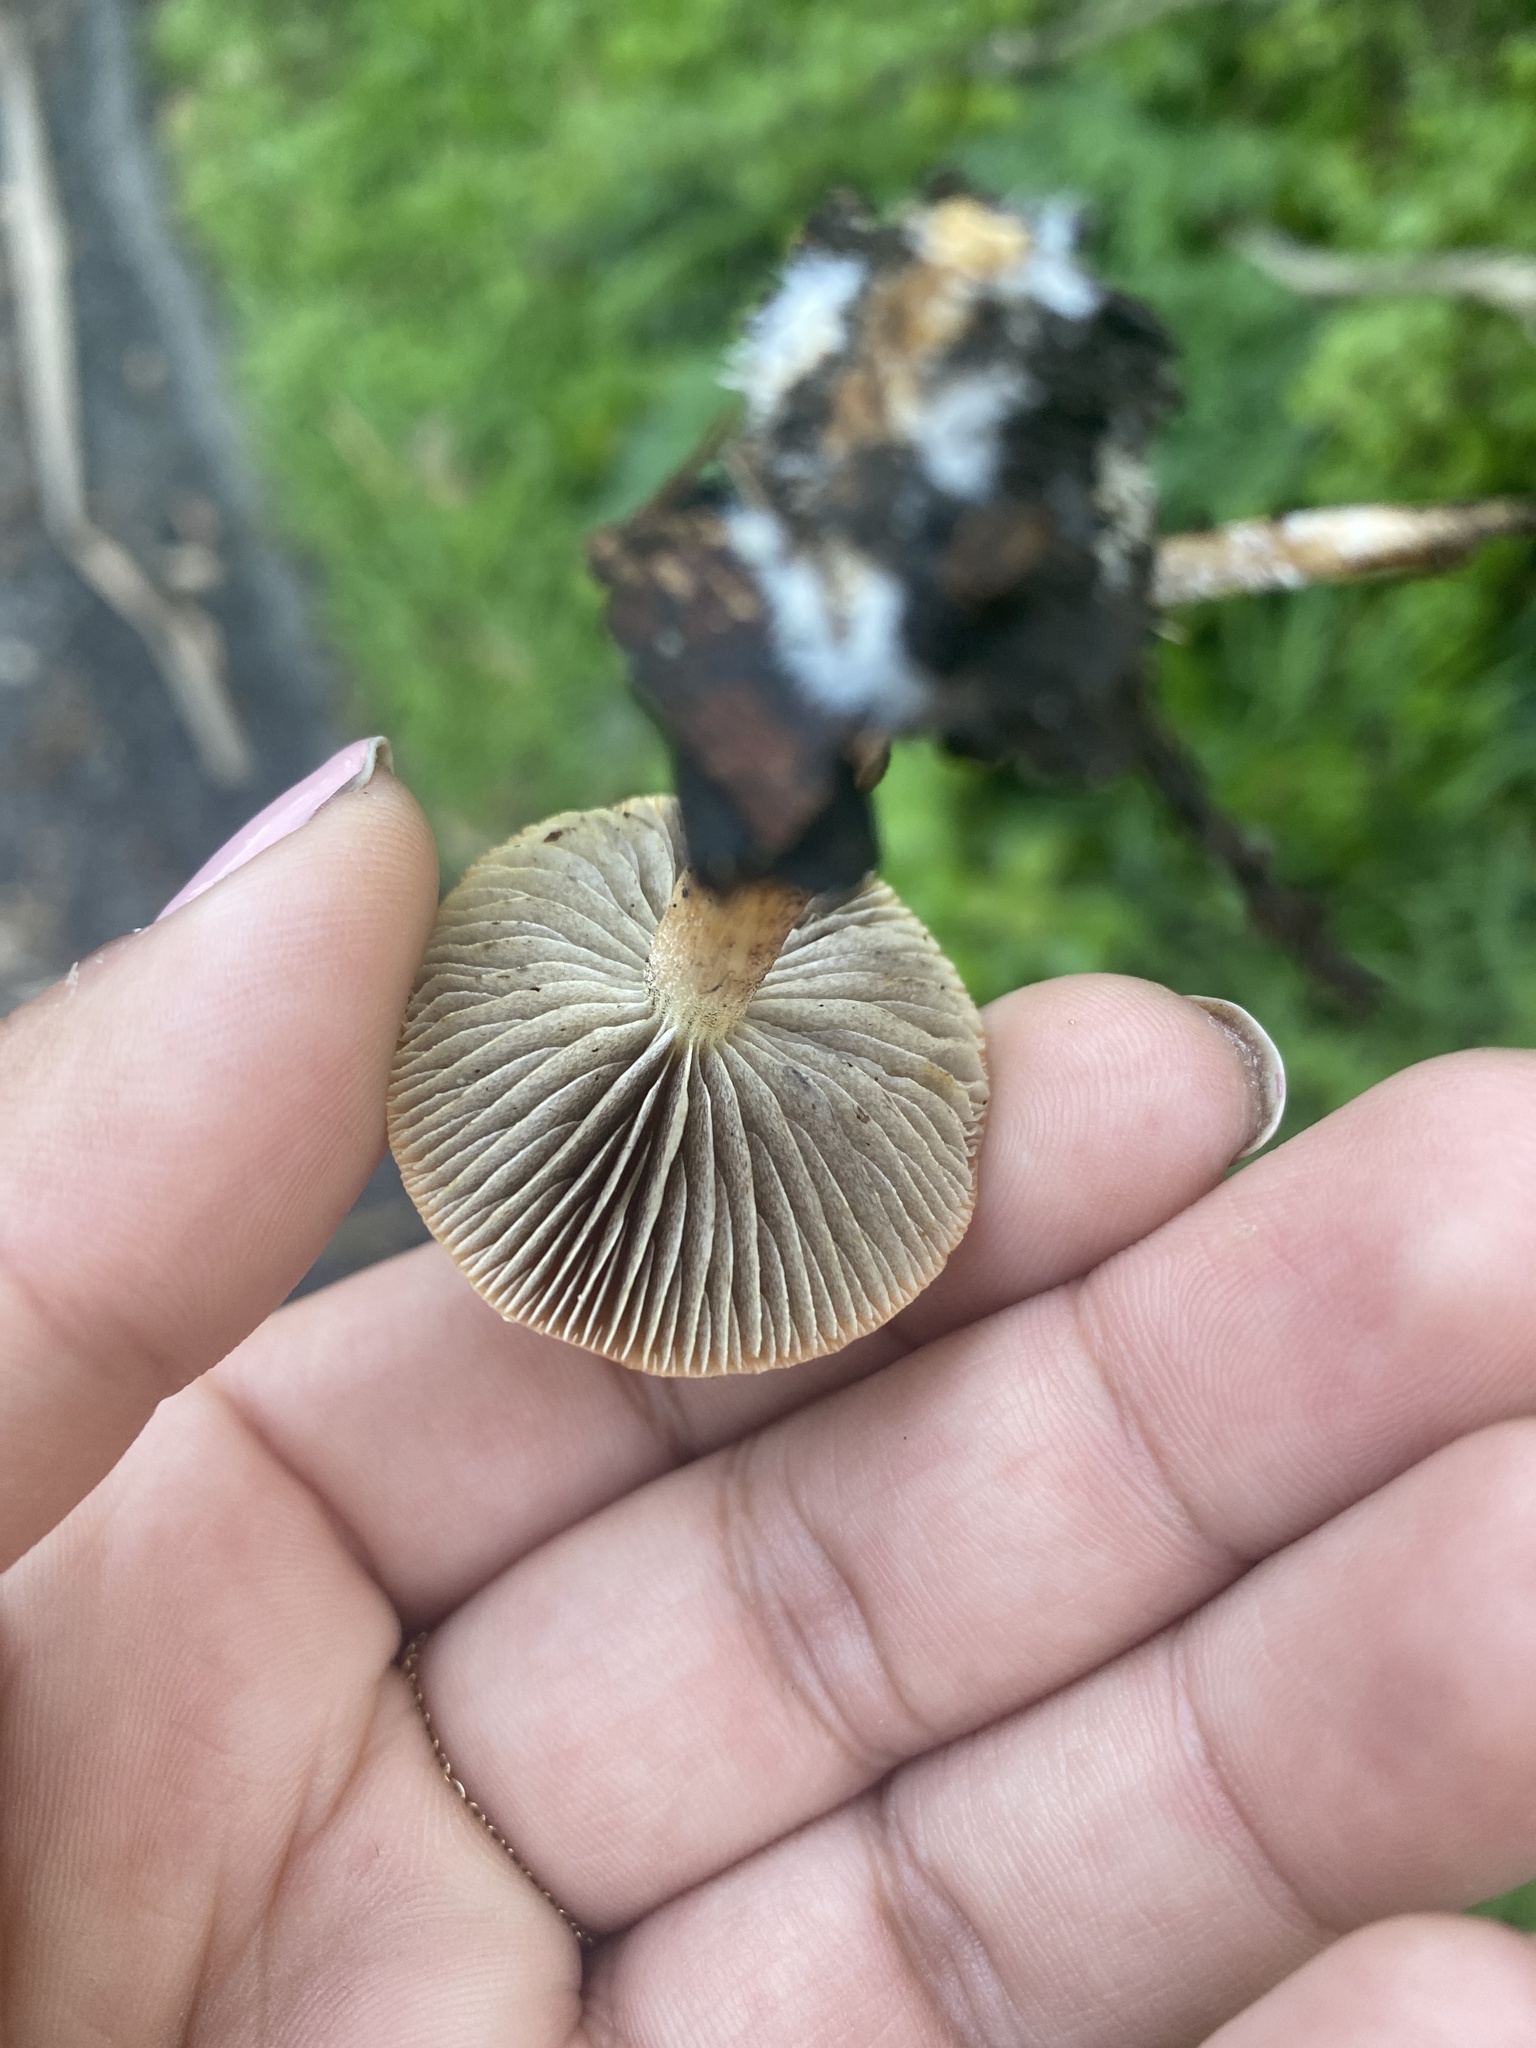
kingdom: Fungi
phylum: Basidiomycota
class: Agaricomycetes
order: Agaricales
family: Strophariaceae
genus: Leratiomyces
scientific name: Leratiomyces ceres
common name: Redlead roundhead
